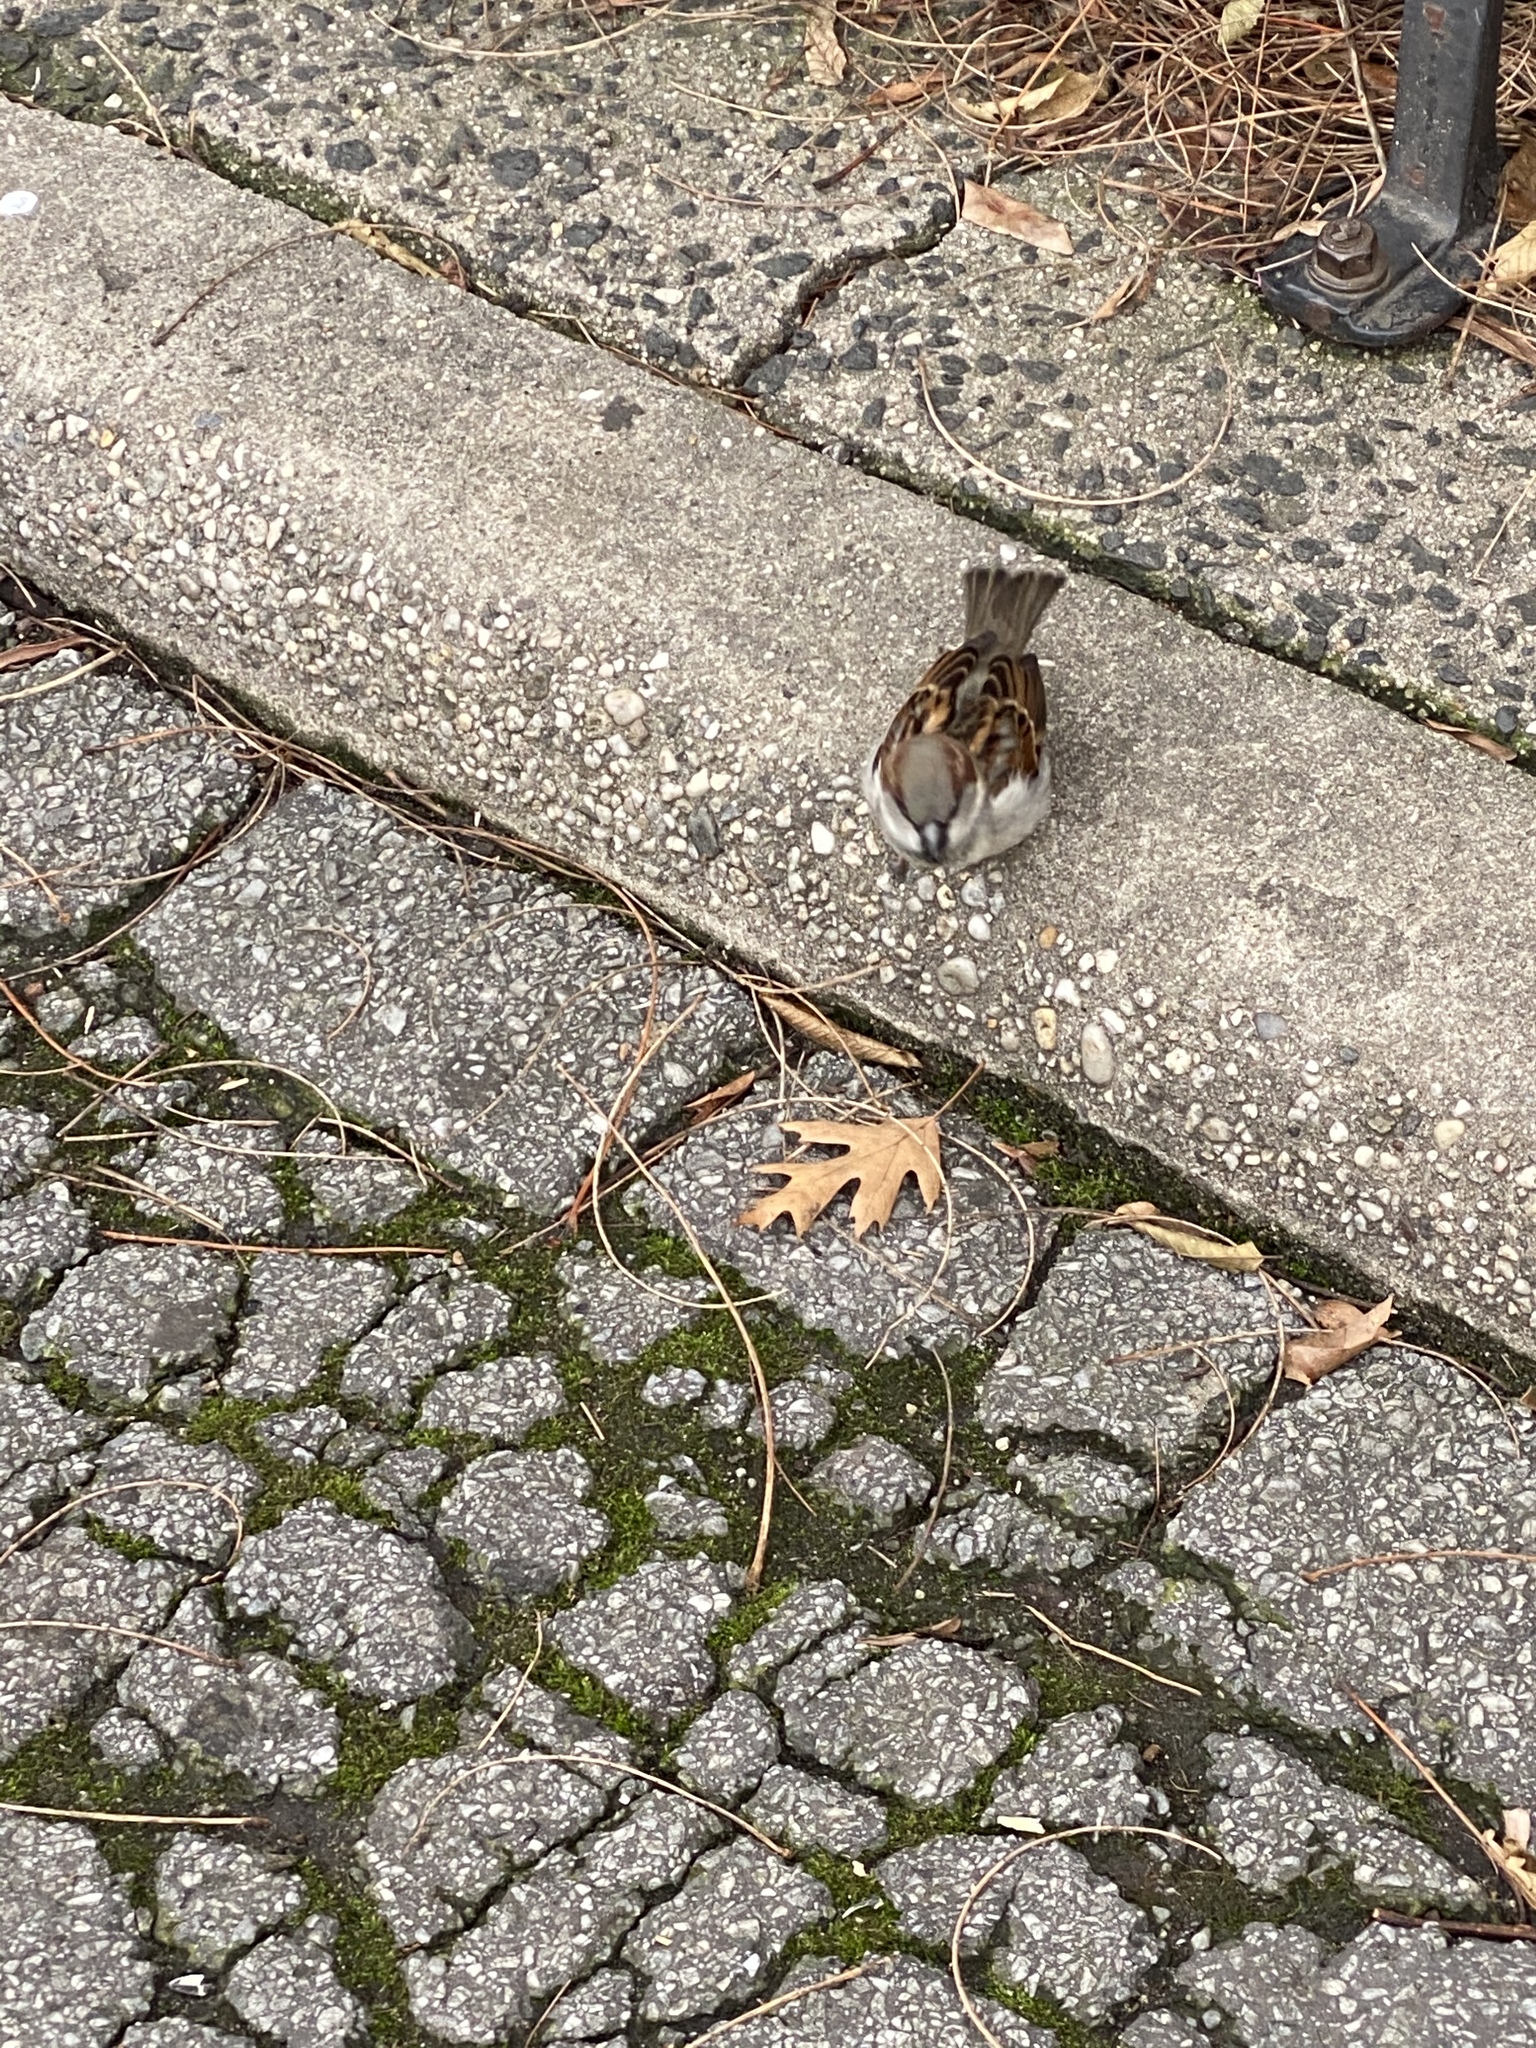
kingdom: Animalia
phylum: Chordata
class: Aves
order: Passeriformes
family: Passeridae
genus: Passer
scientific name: Passer domesticus
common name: House sparrow
